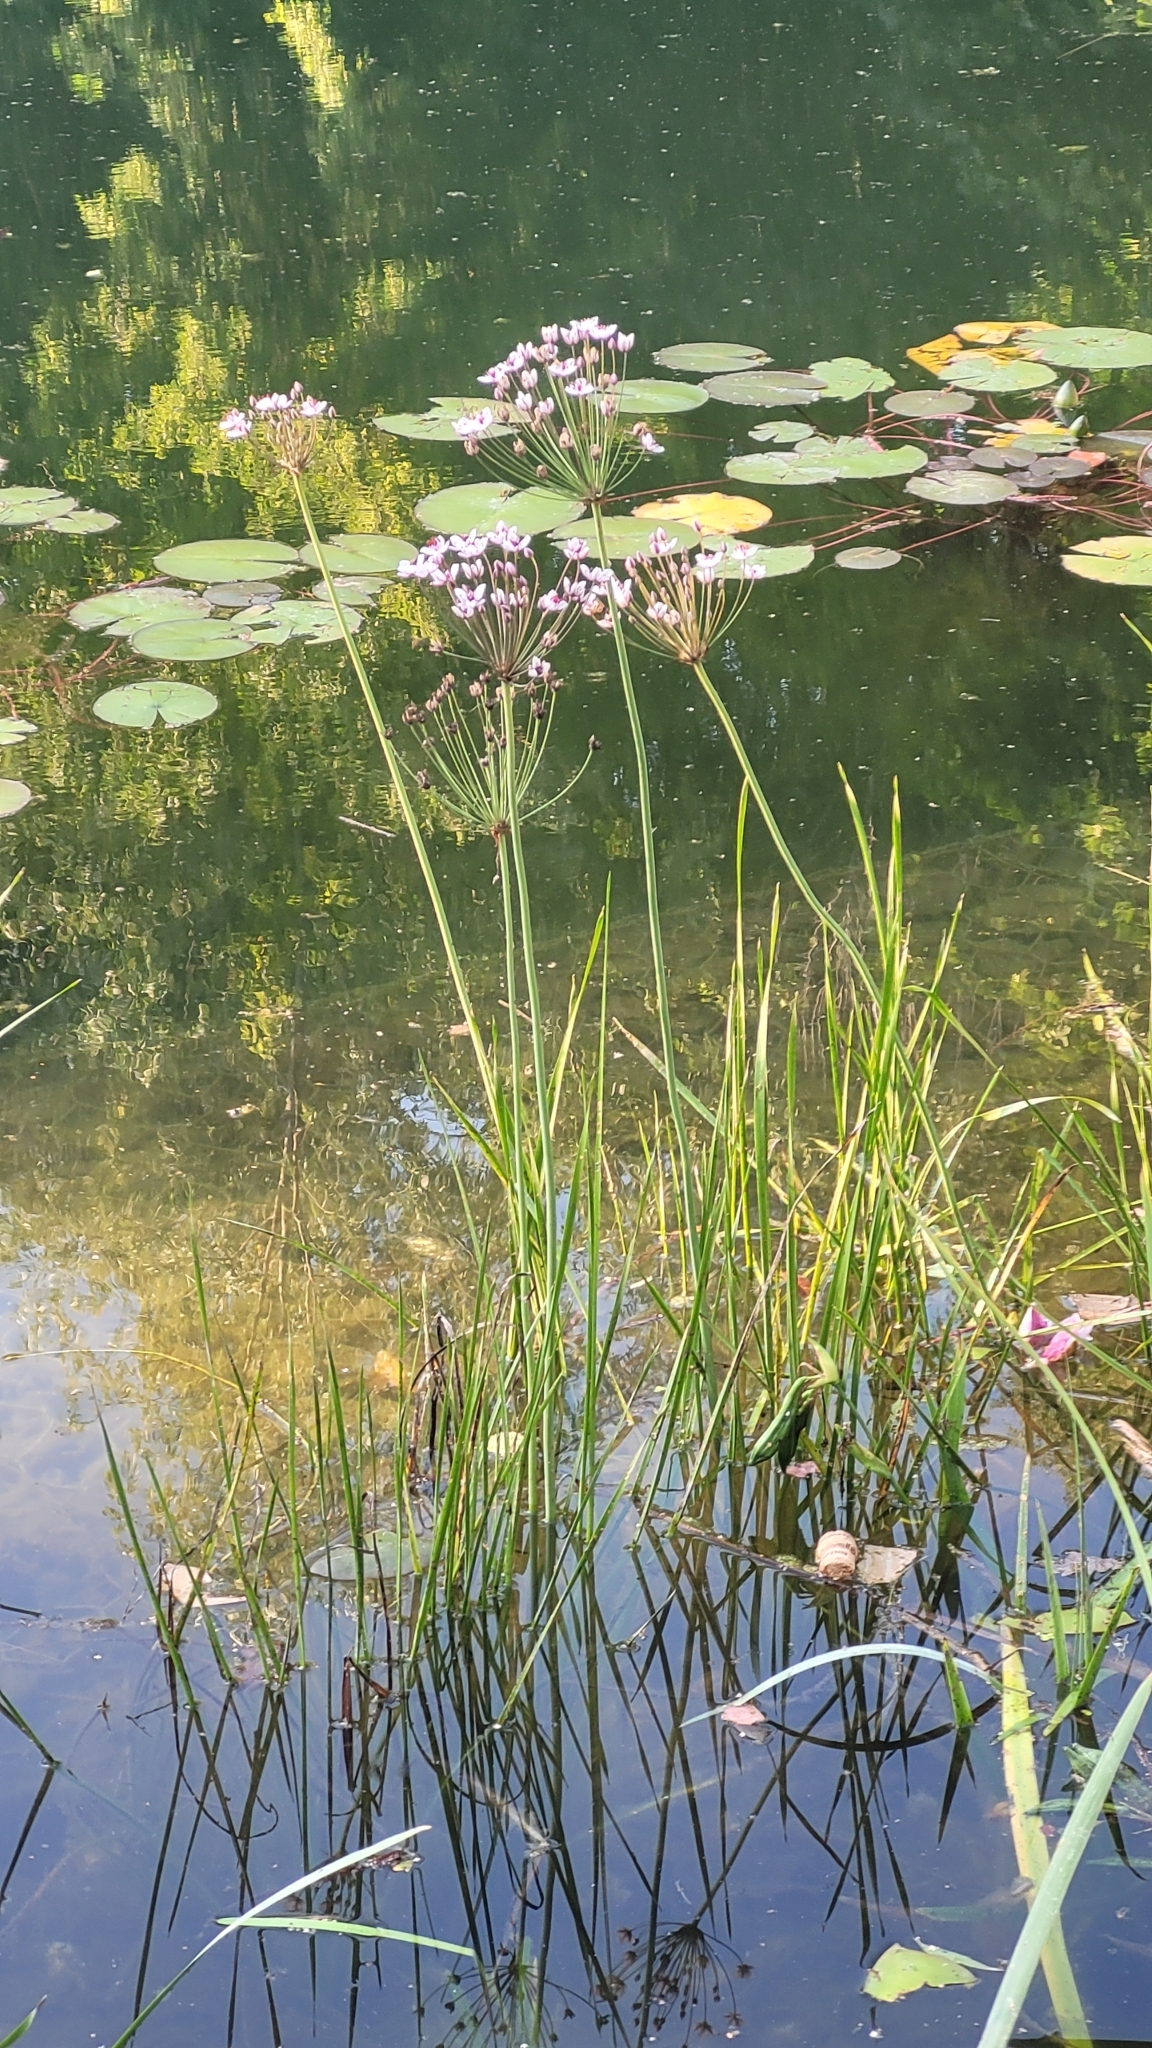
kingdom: Plantae
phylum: Tracheophyta
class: Liliopsida
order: Alismatales
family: Butomaceae
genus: Butomus
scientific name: Butomus umbellatus
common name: Flowering-rush
